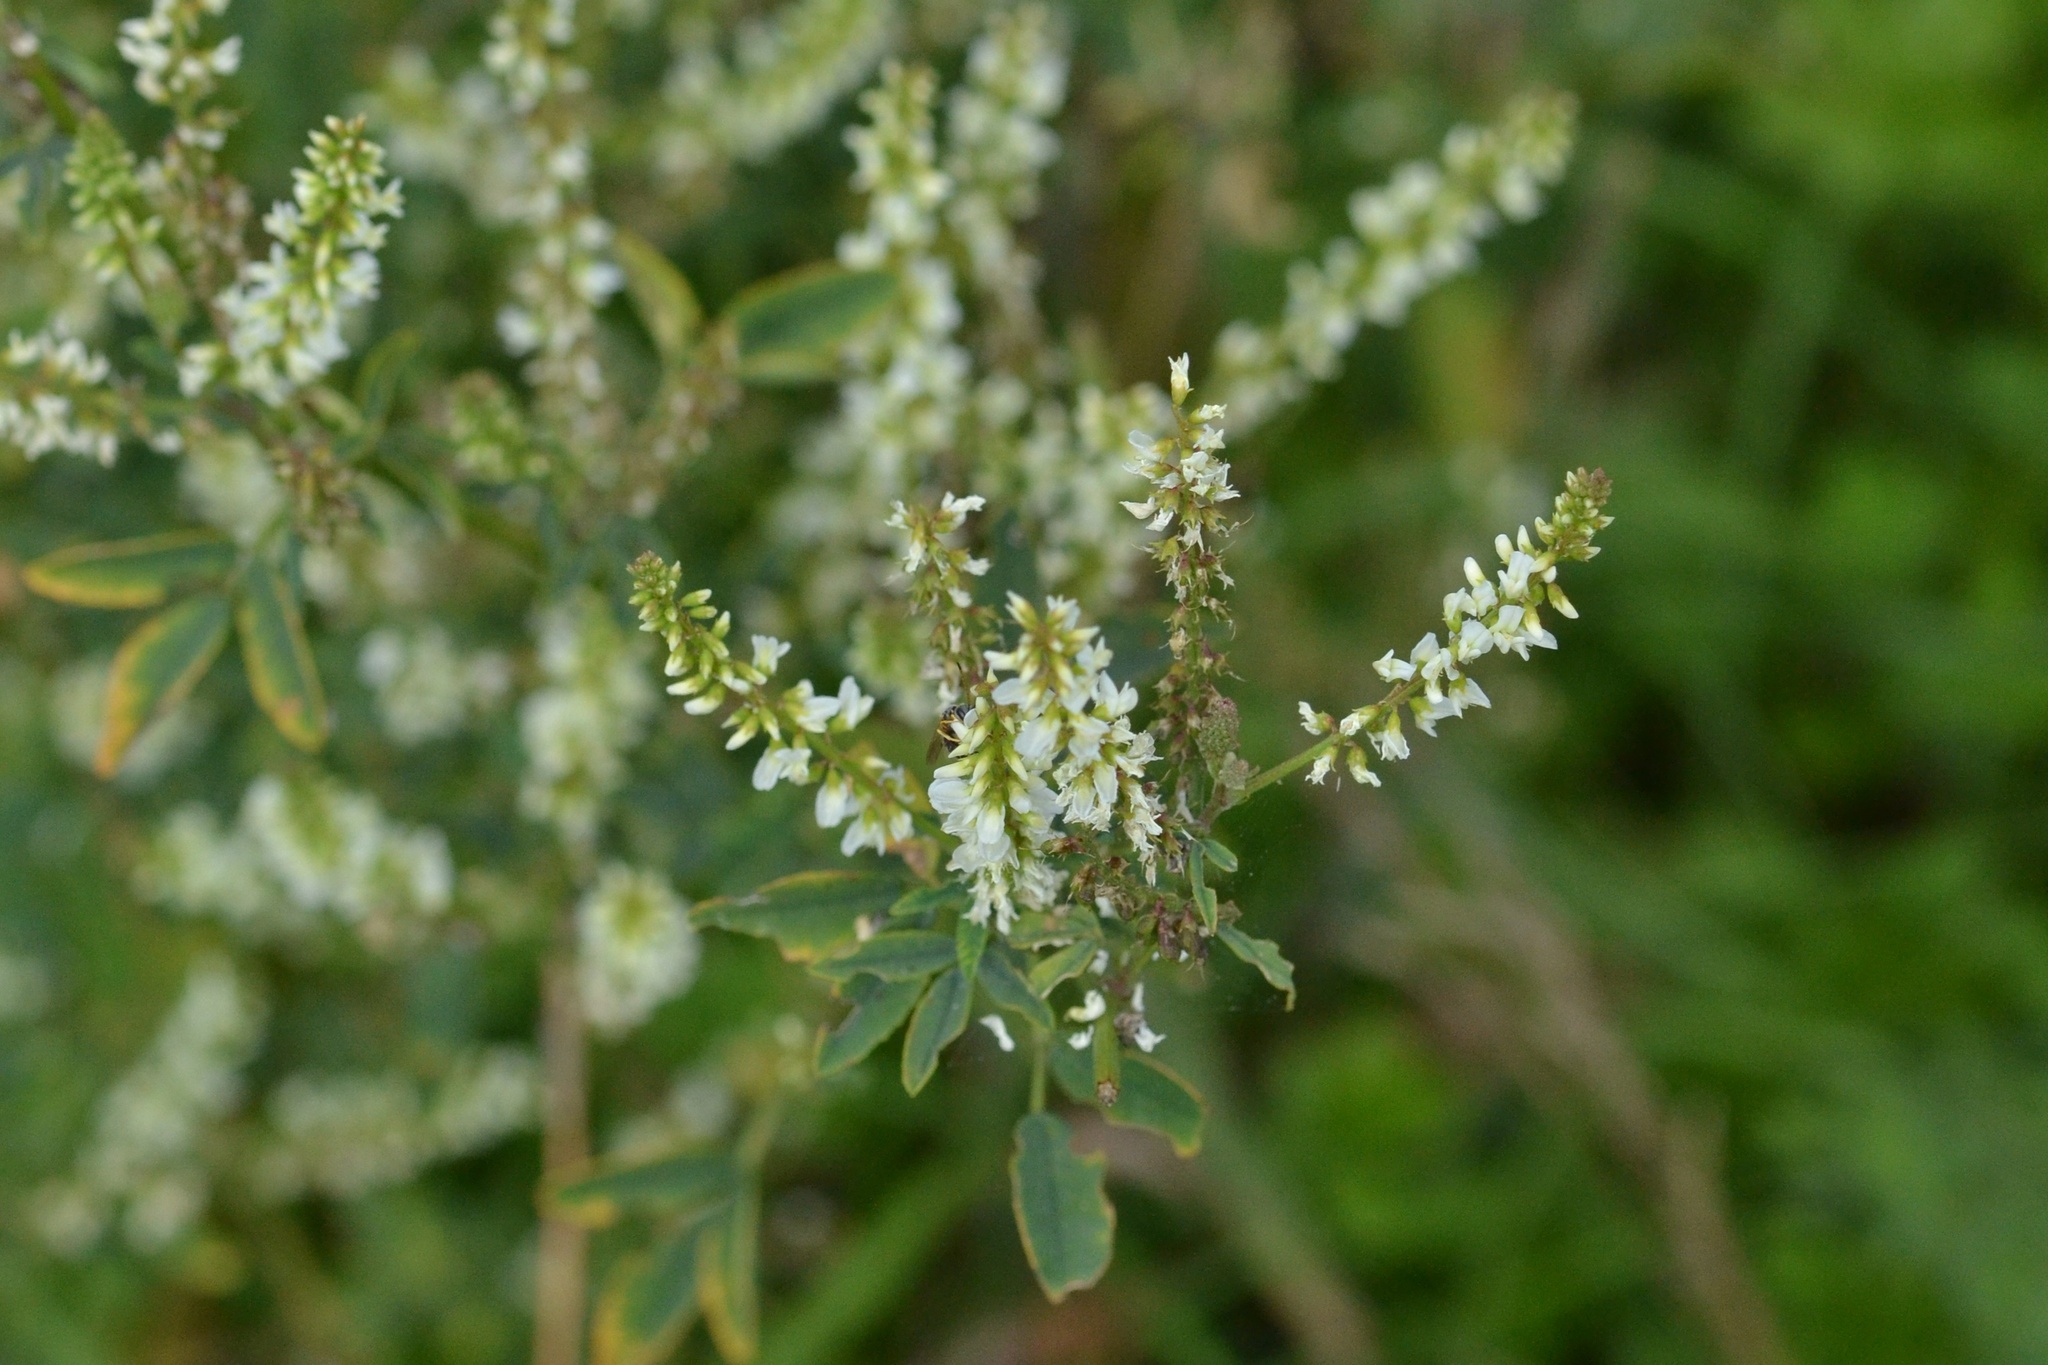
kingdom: Plantae
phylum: Tracheophyta
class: Magnoliopsida
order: Fabales
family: Fabaceae
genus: Melilotus
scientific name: Melilotus albus
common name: White melilot
